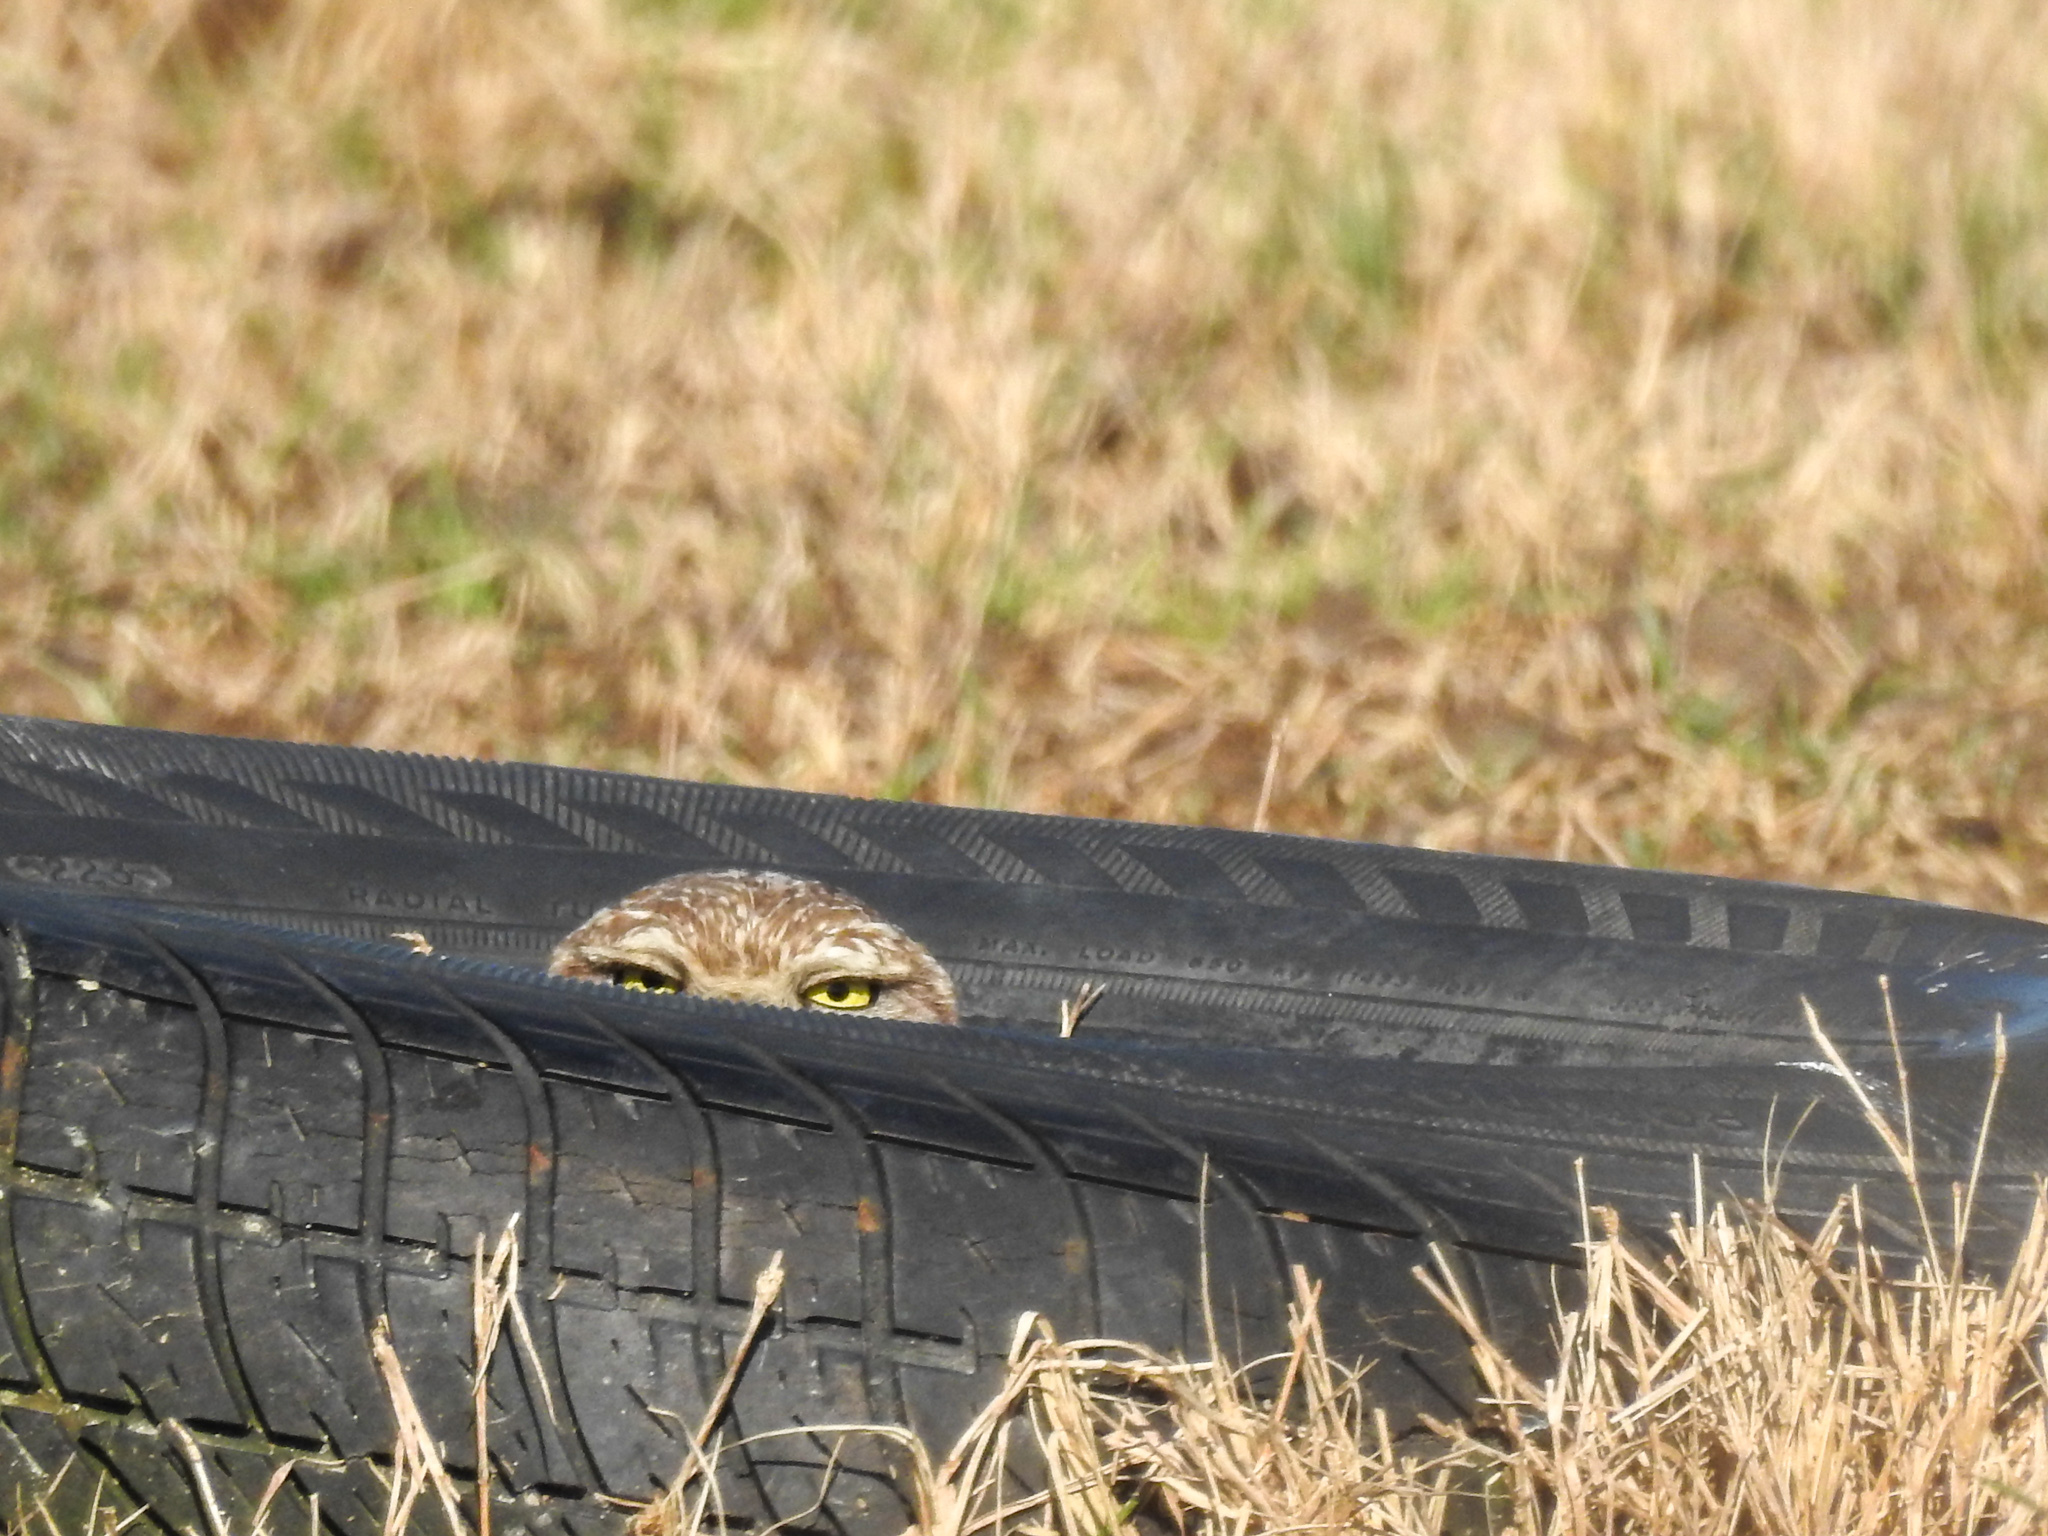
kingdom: Animalia
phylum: Chordata
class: Aves
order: Strigiformes
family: Strigidae
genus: Athene
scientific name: Athene cunicularia
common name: Burrowing owl
